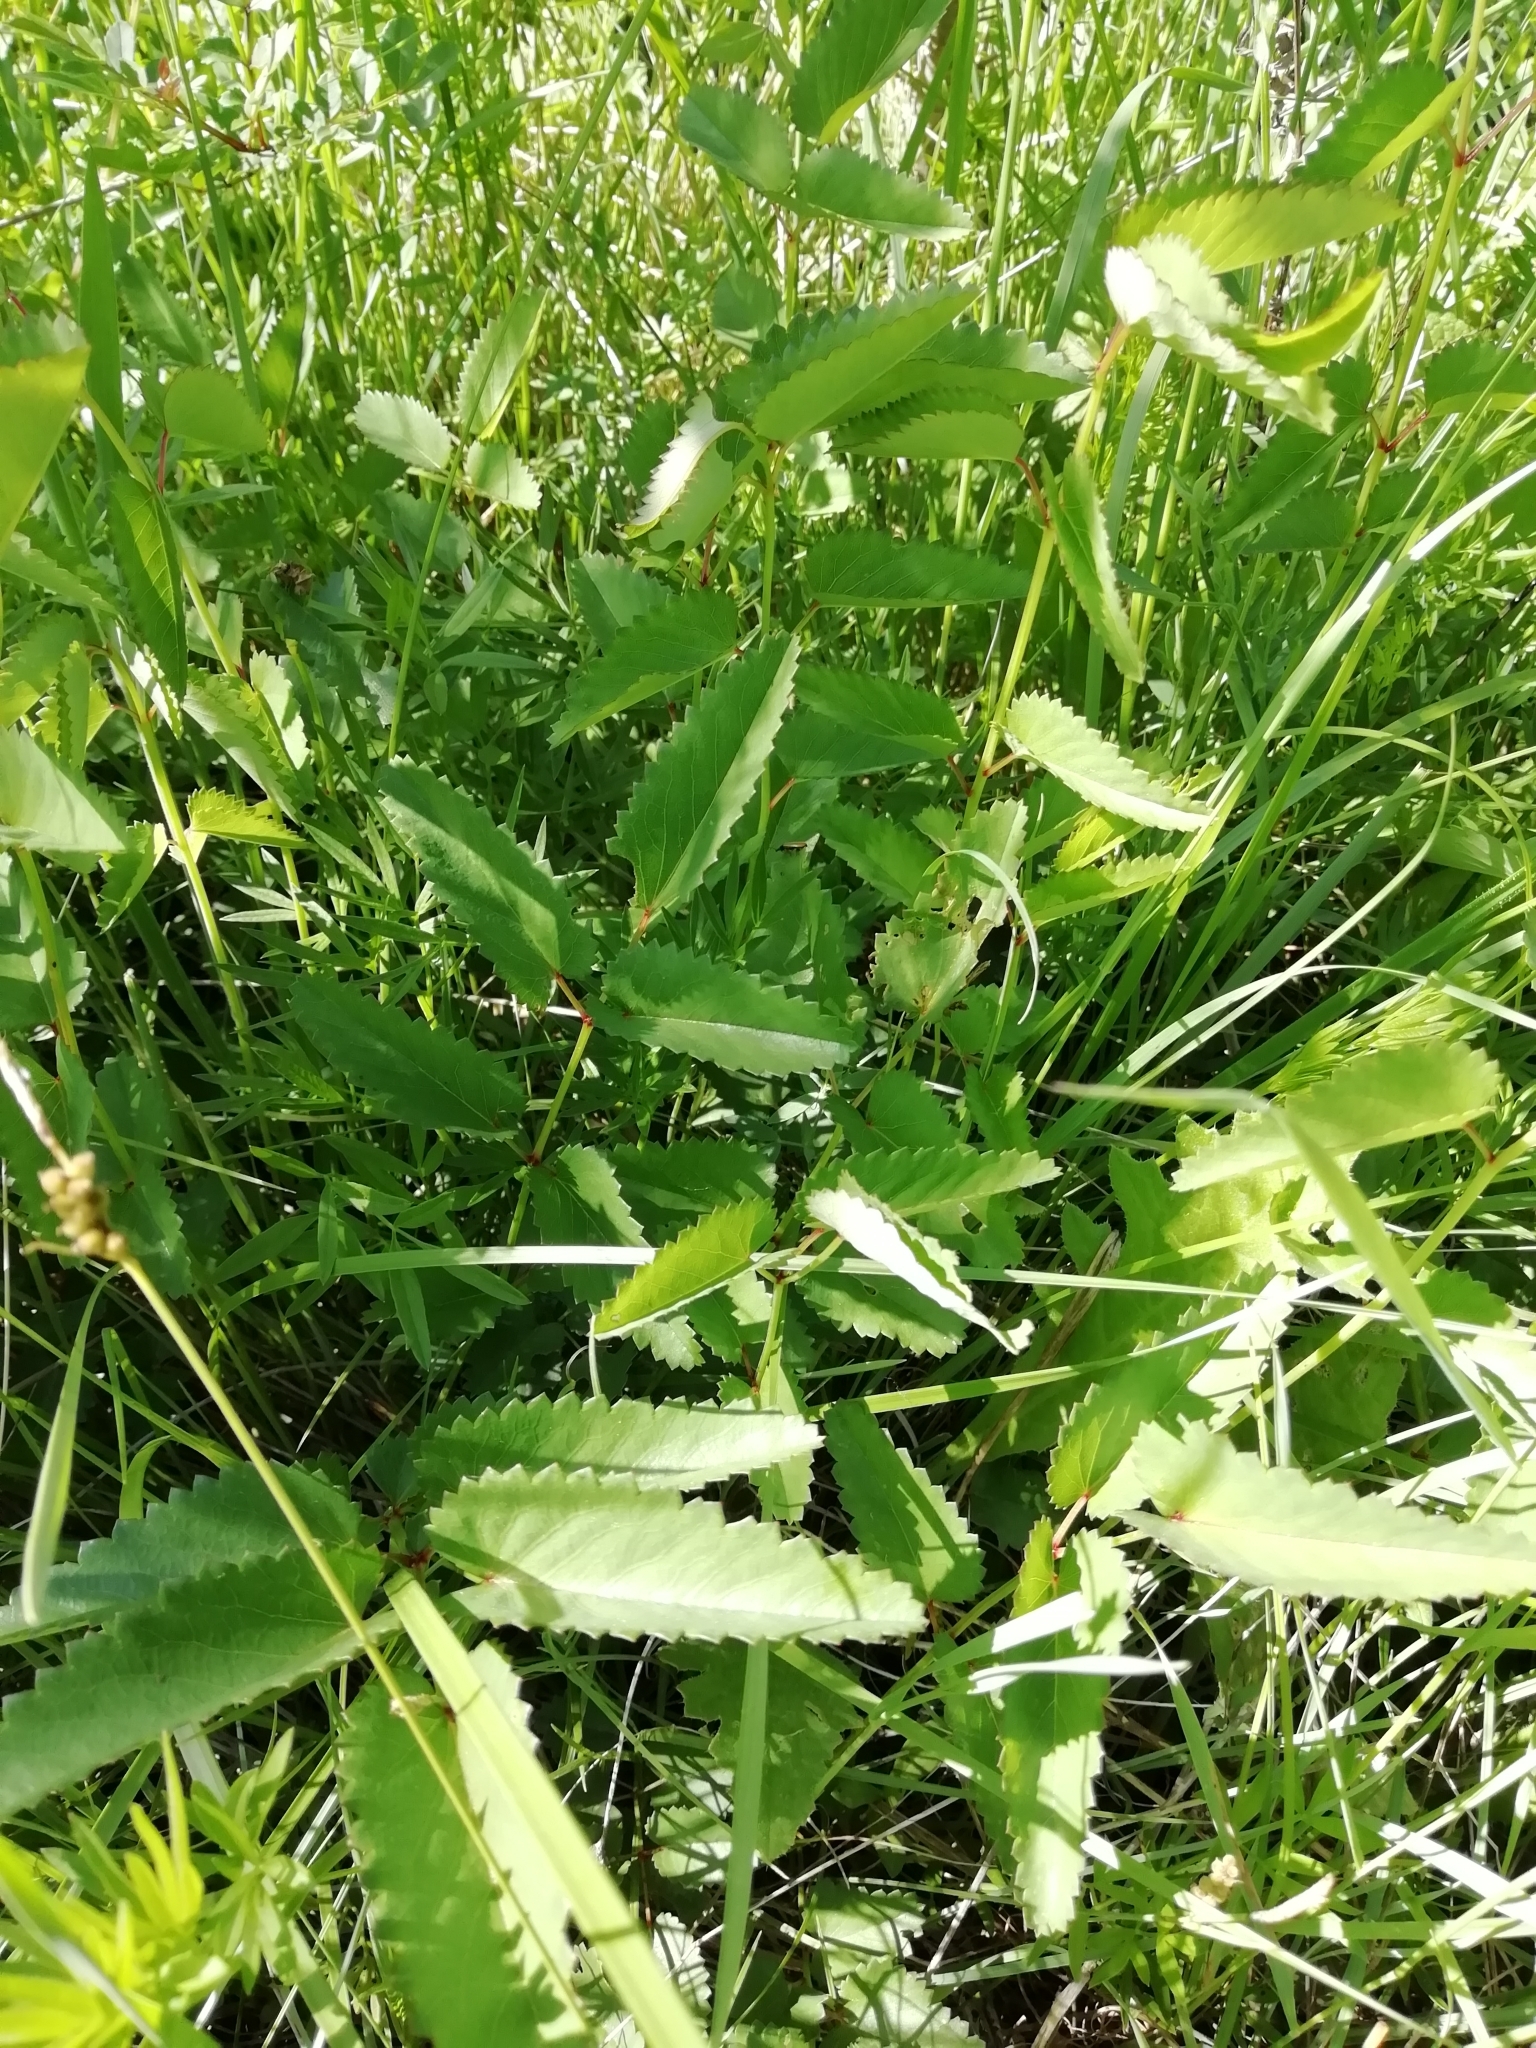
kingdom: Plantae
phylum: Tracheophyta
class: Magnoliopsida
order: Rosales
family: Rosaceae
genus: Sanguisorba
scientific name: Sanguisorba officinalis
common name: Great burnet
